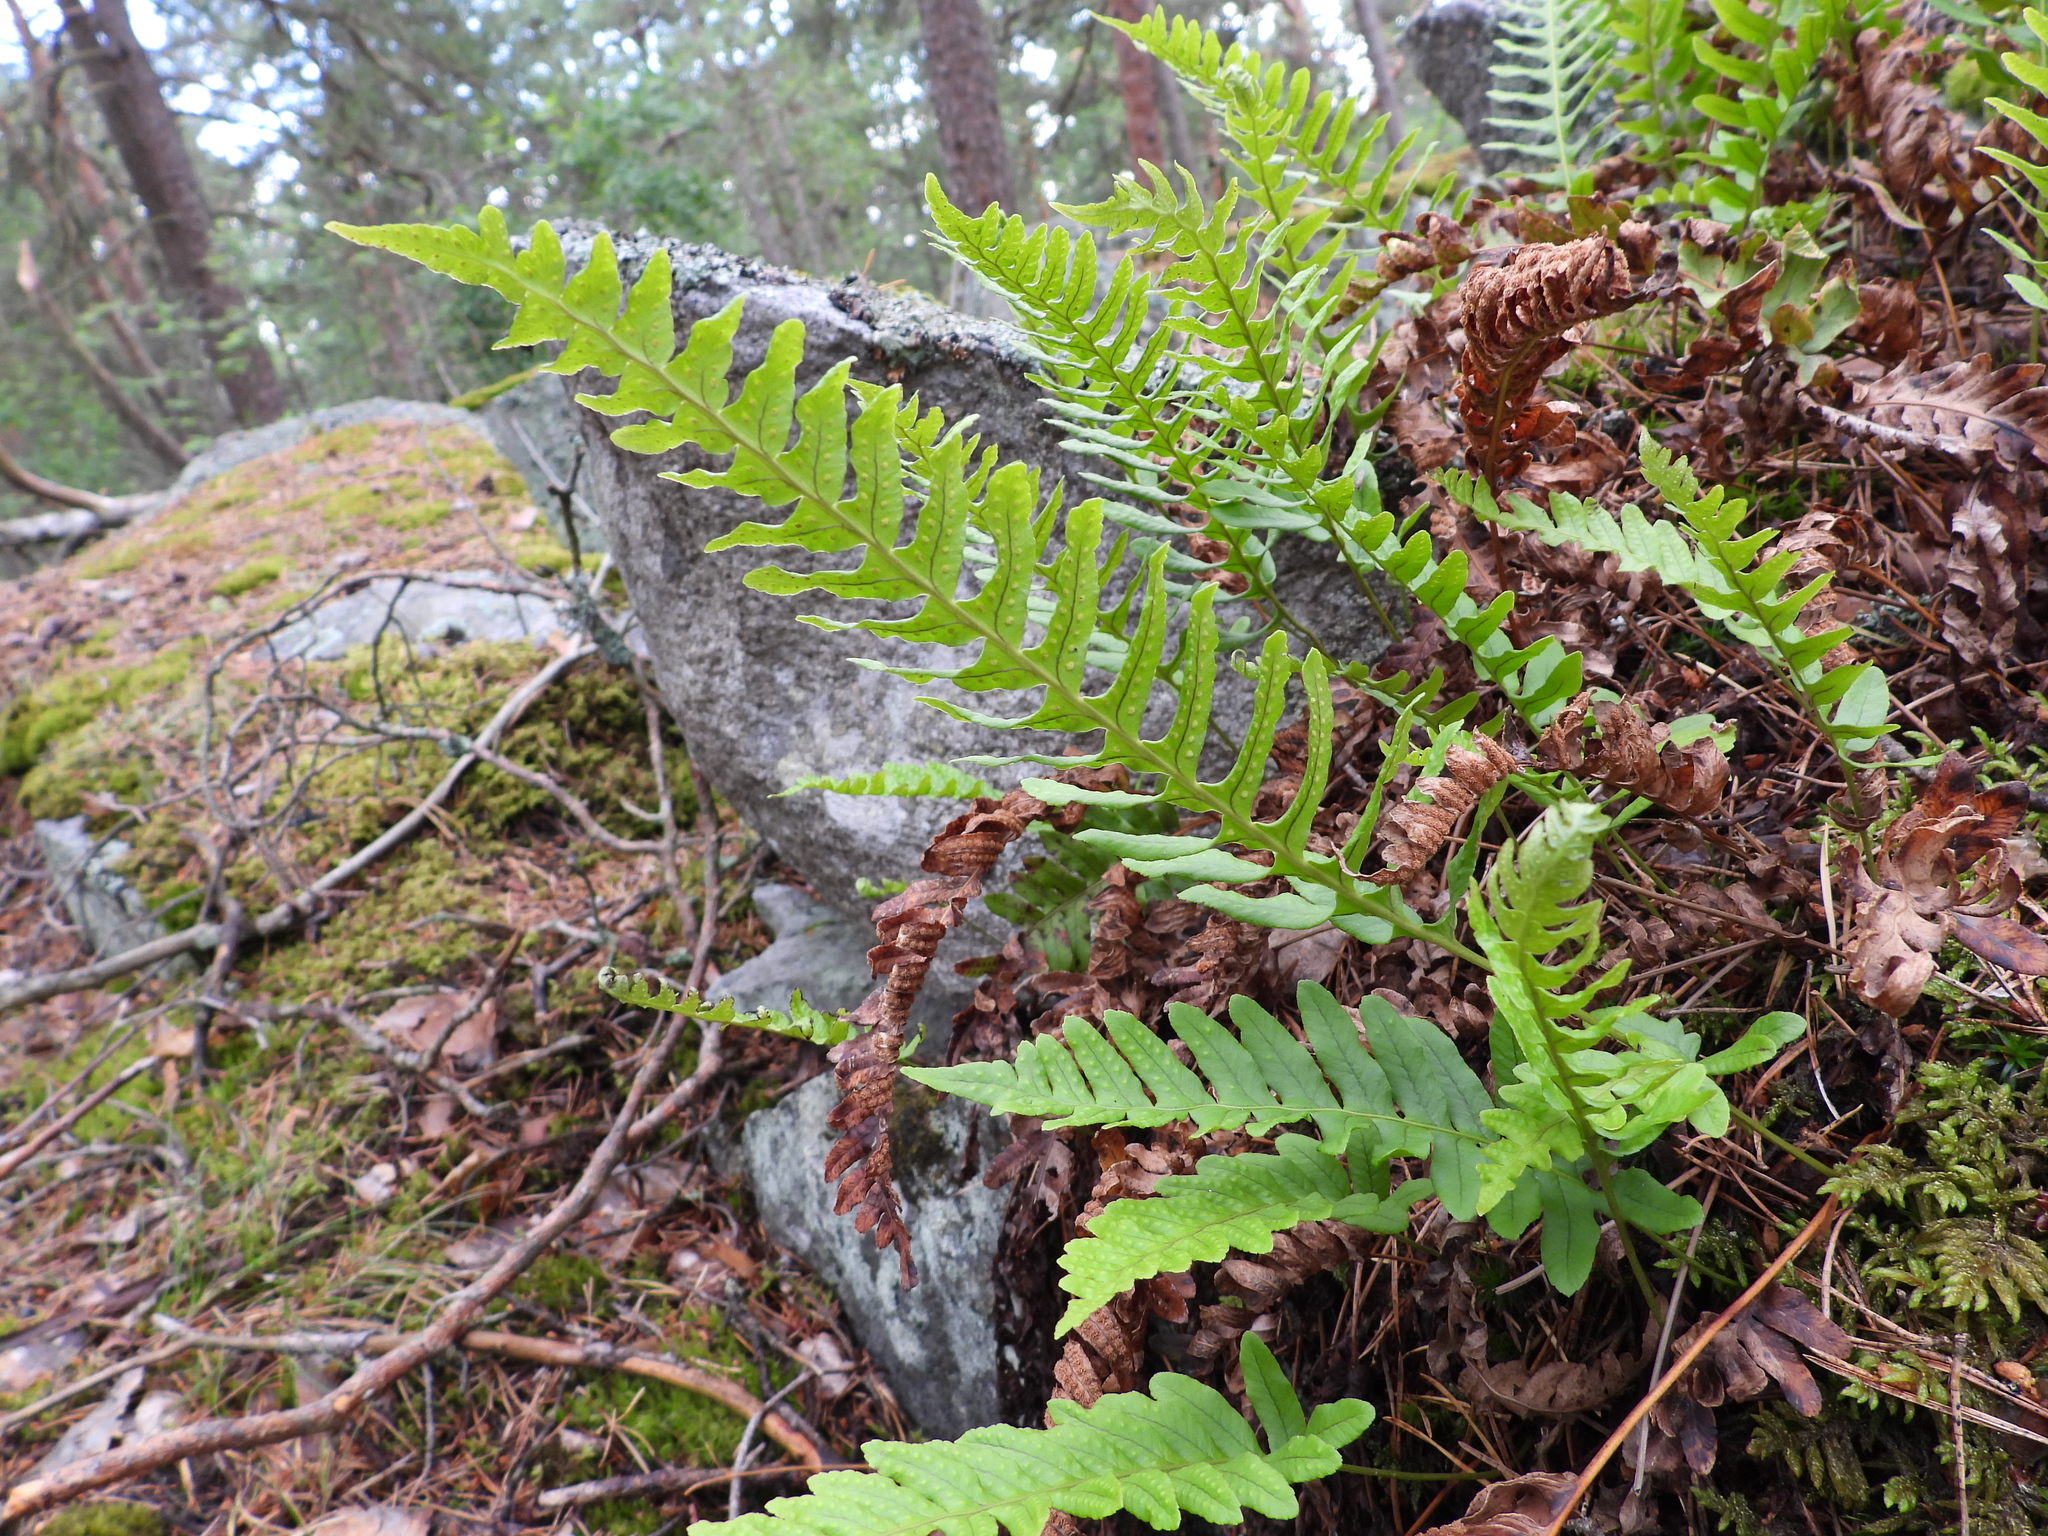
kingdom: Plantae
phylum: Tracheophyta
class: Polypodiopsida
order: Polypodiales
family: Polypodiaceae
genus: Polypodium
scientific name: Polypodium vulgare
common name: Common polypody
